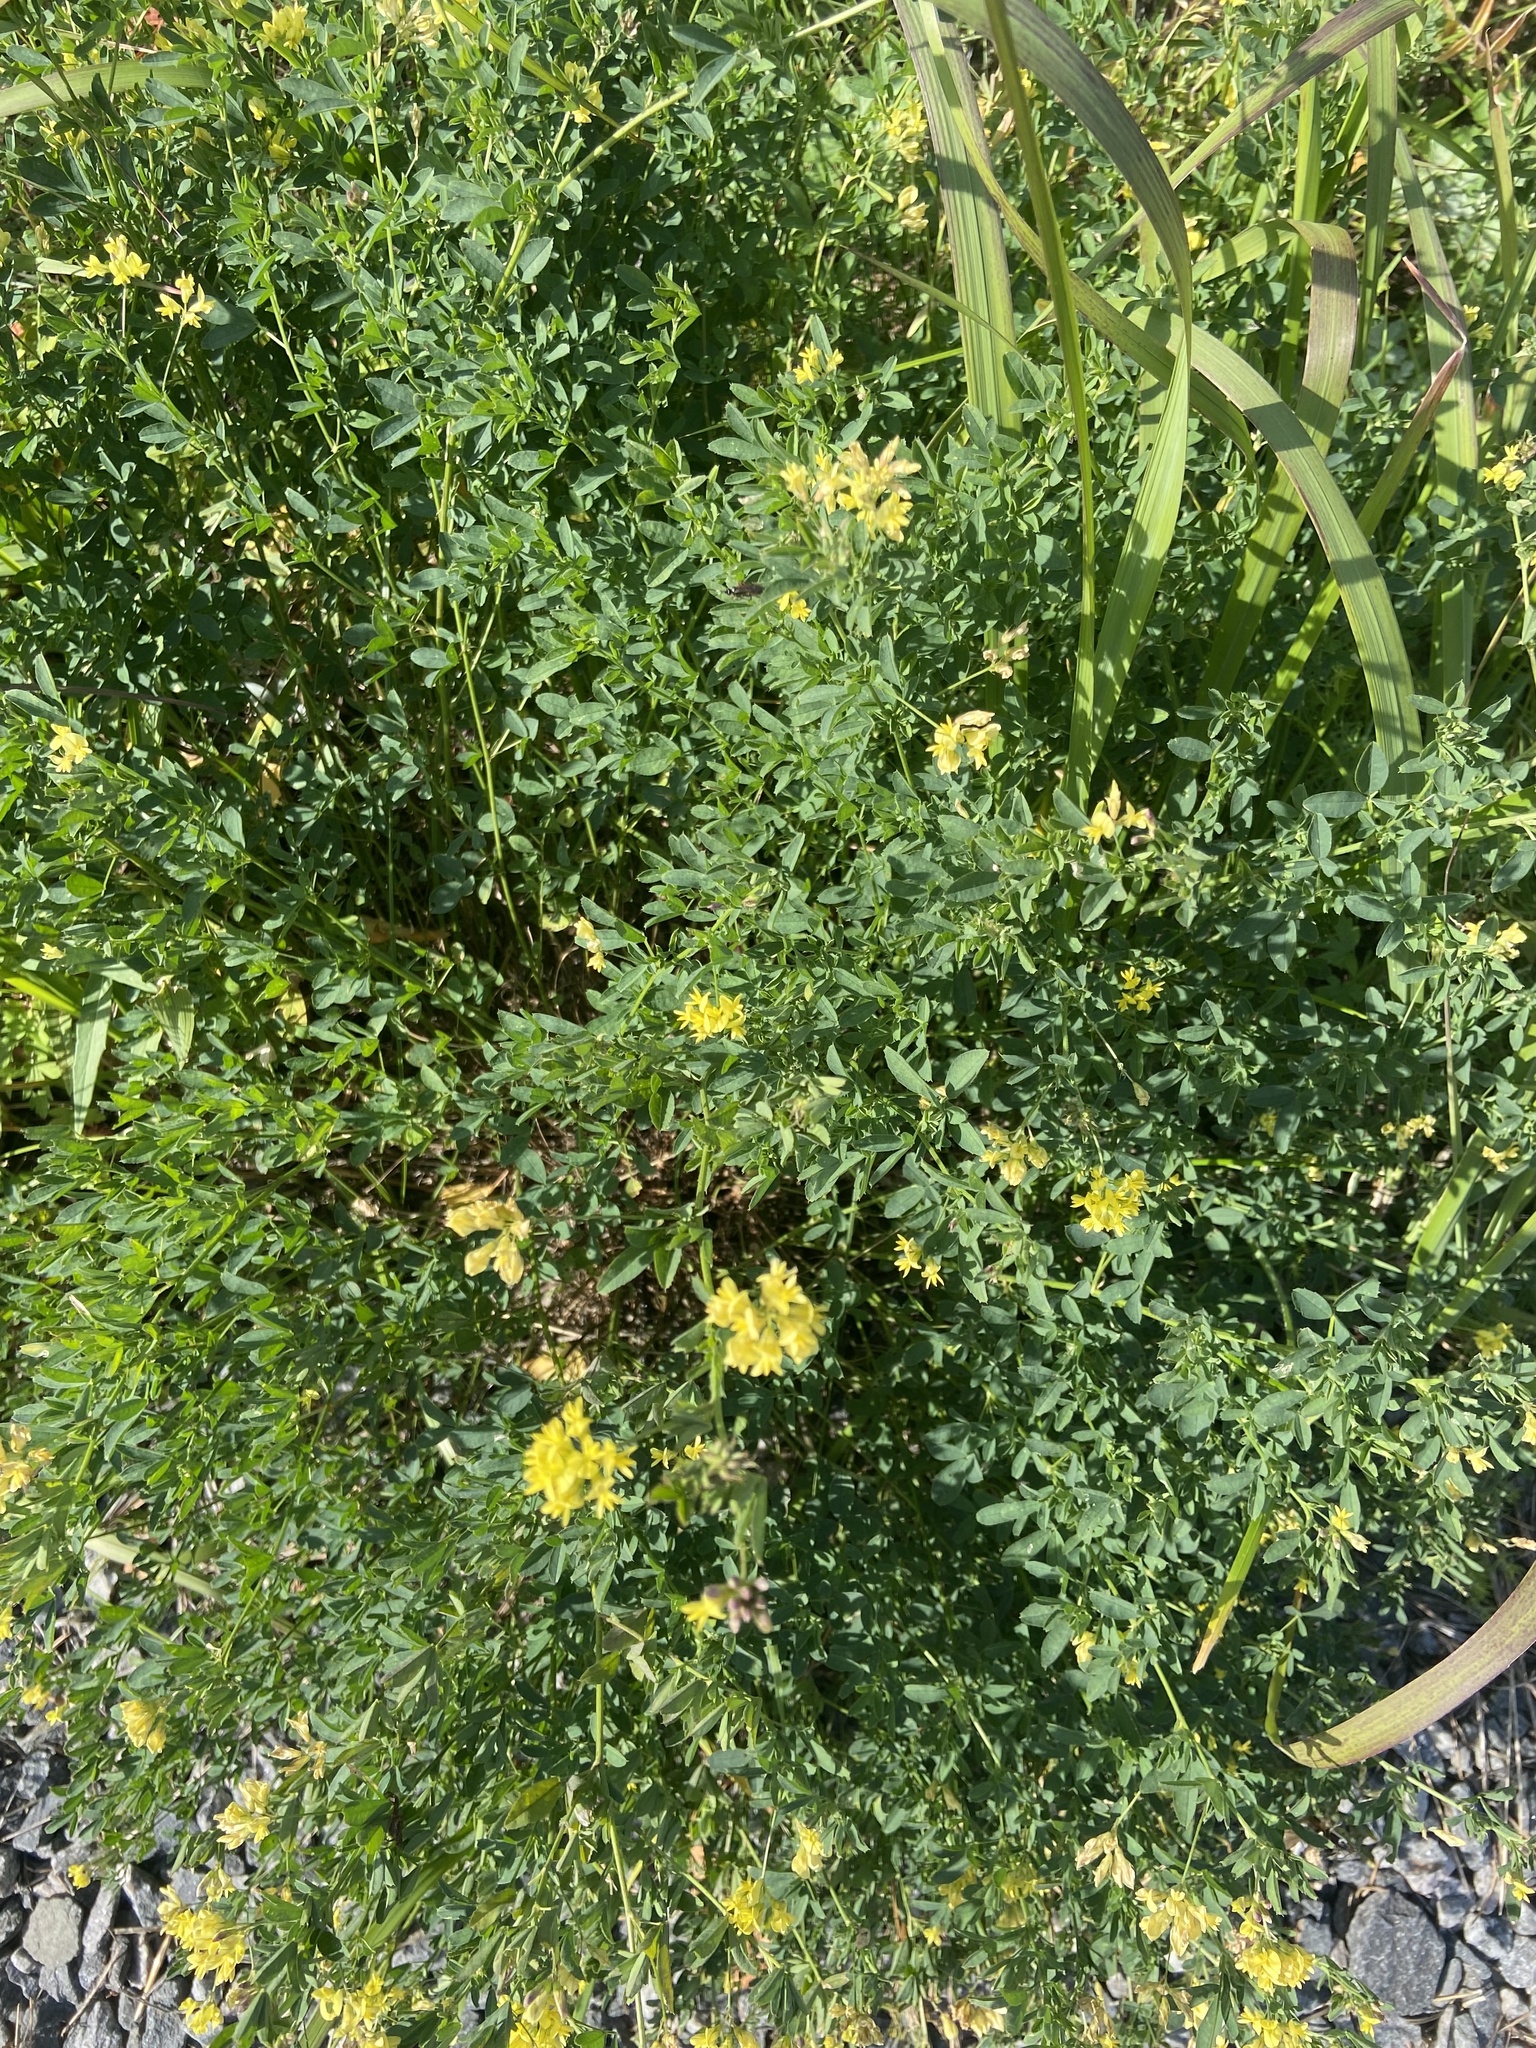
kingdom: Plantae
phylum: Tracheophyta
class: Magnoliopsida
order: Fabales
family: Fabaceae
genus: Medicago
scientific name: Medicago varia
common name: Sand lucerne
